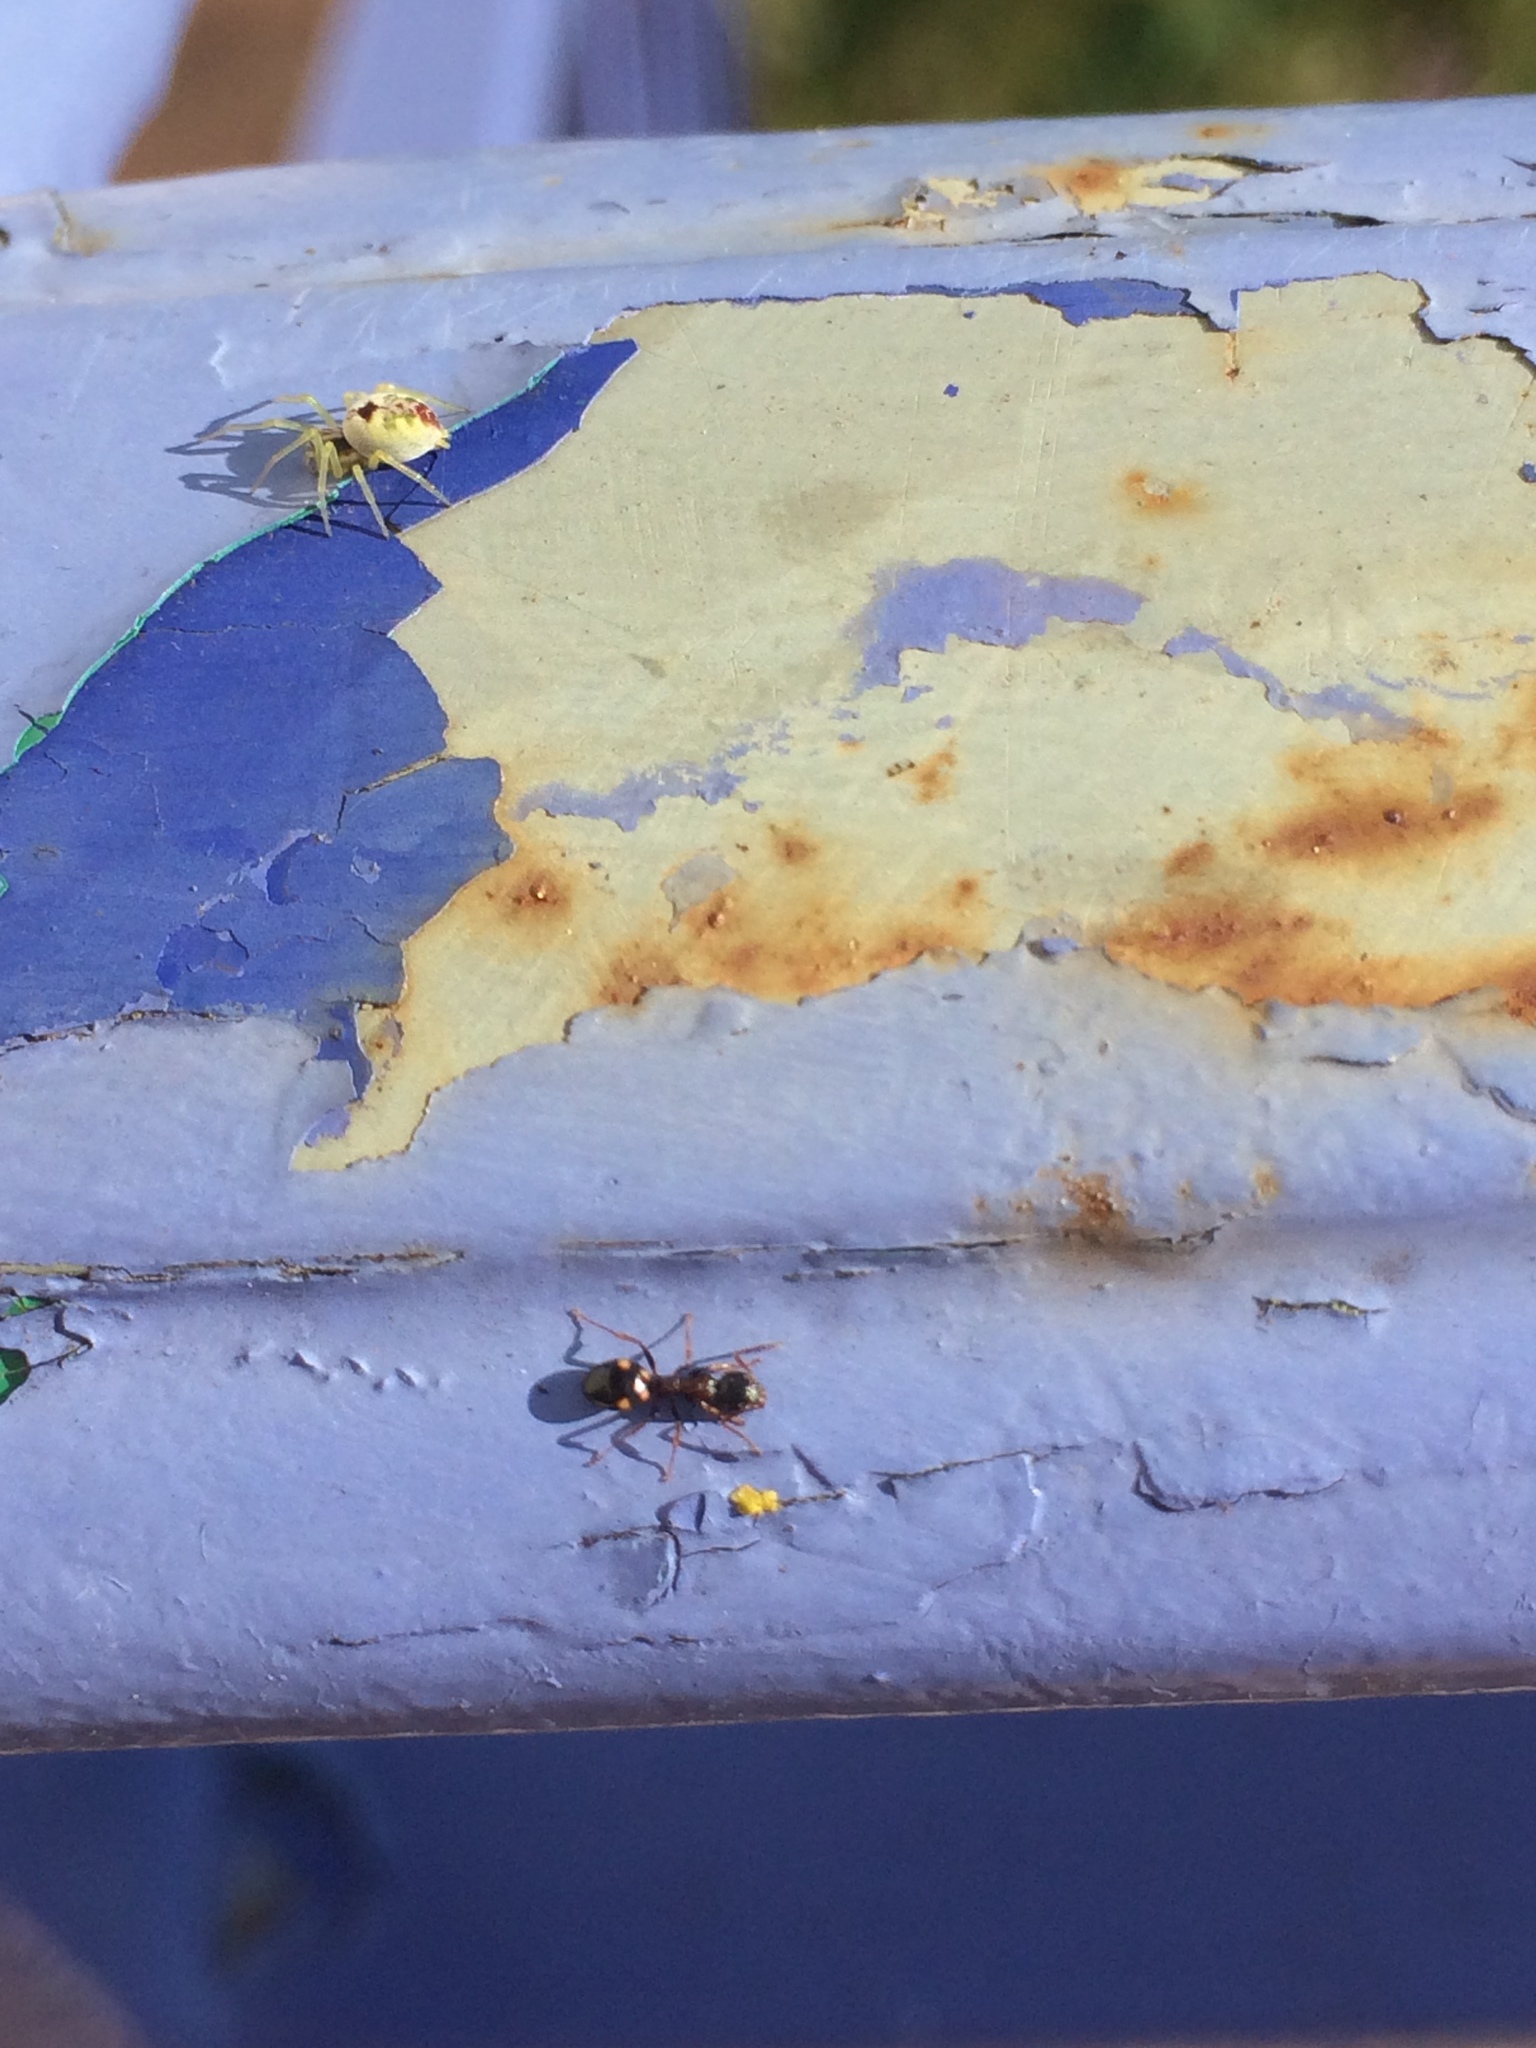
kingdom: Animalia
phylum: Arthropoda
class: Insecta
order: Hymenoptera
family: Formicidae
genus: Dolichoderus
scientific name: Dolichoderus quadripunctatus
